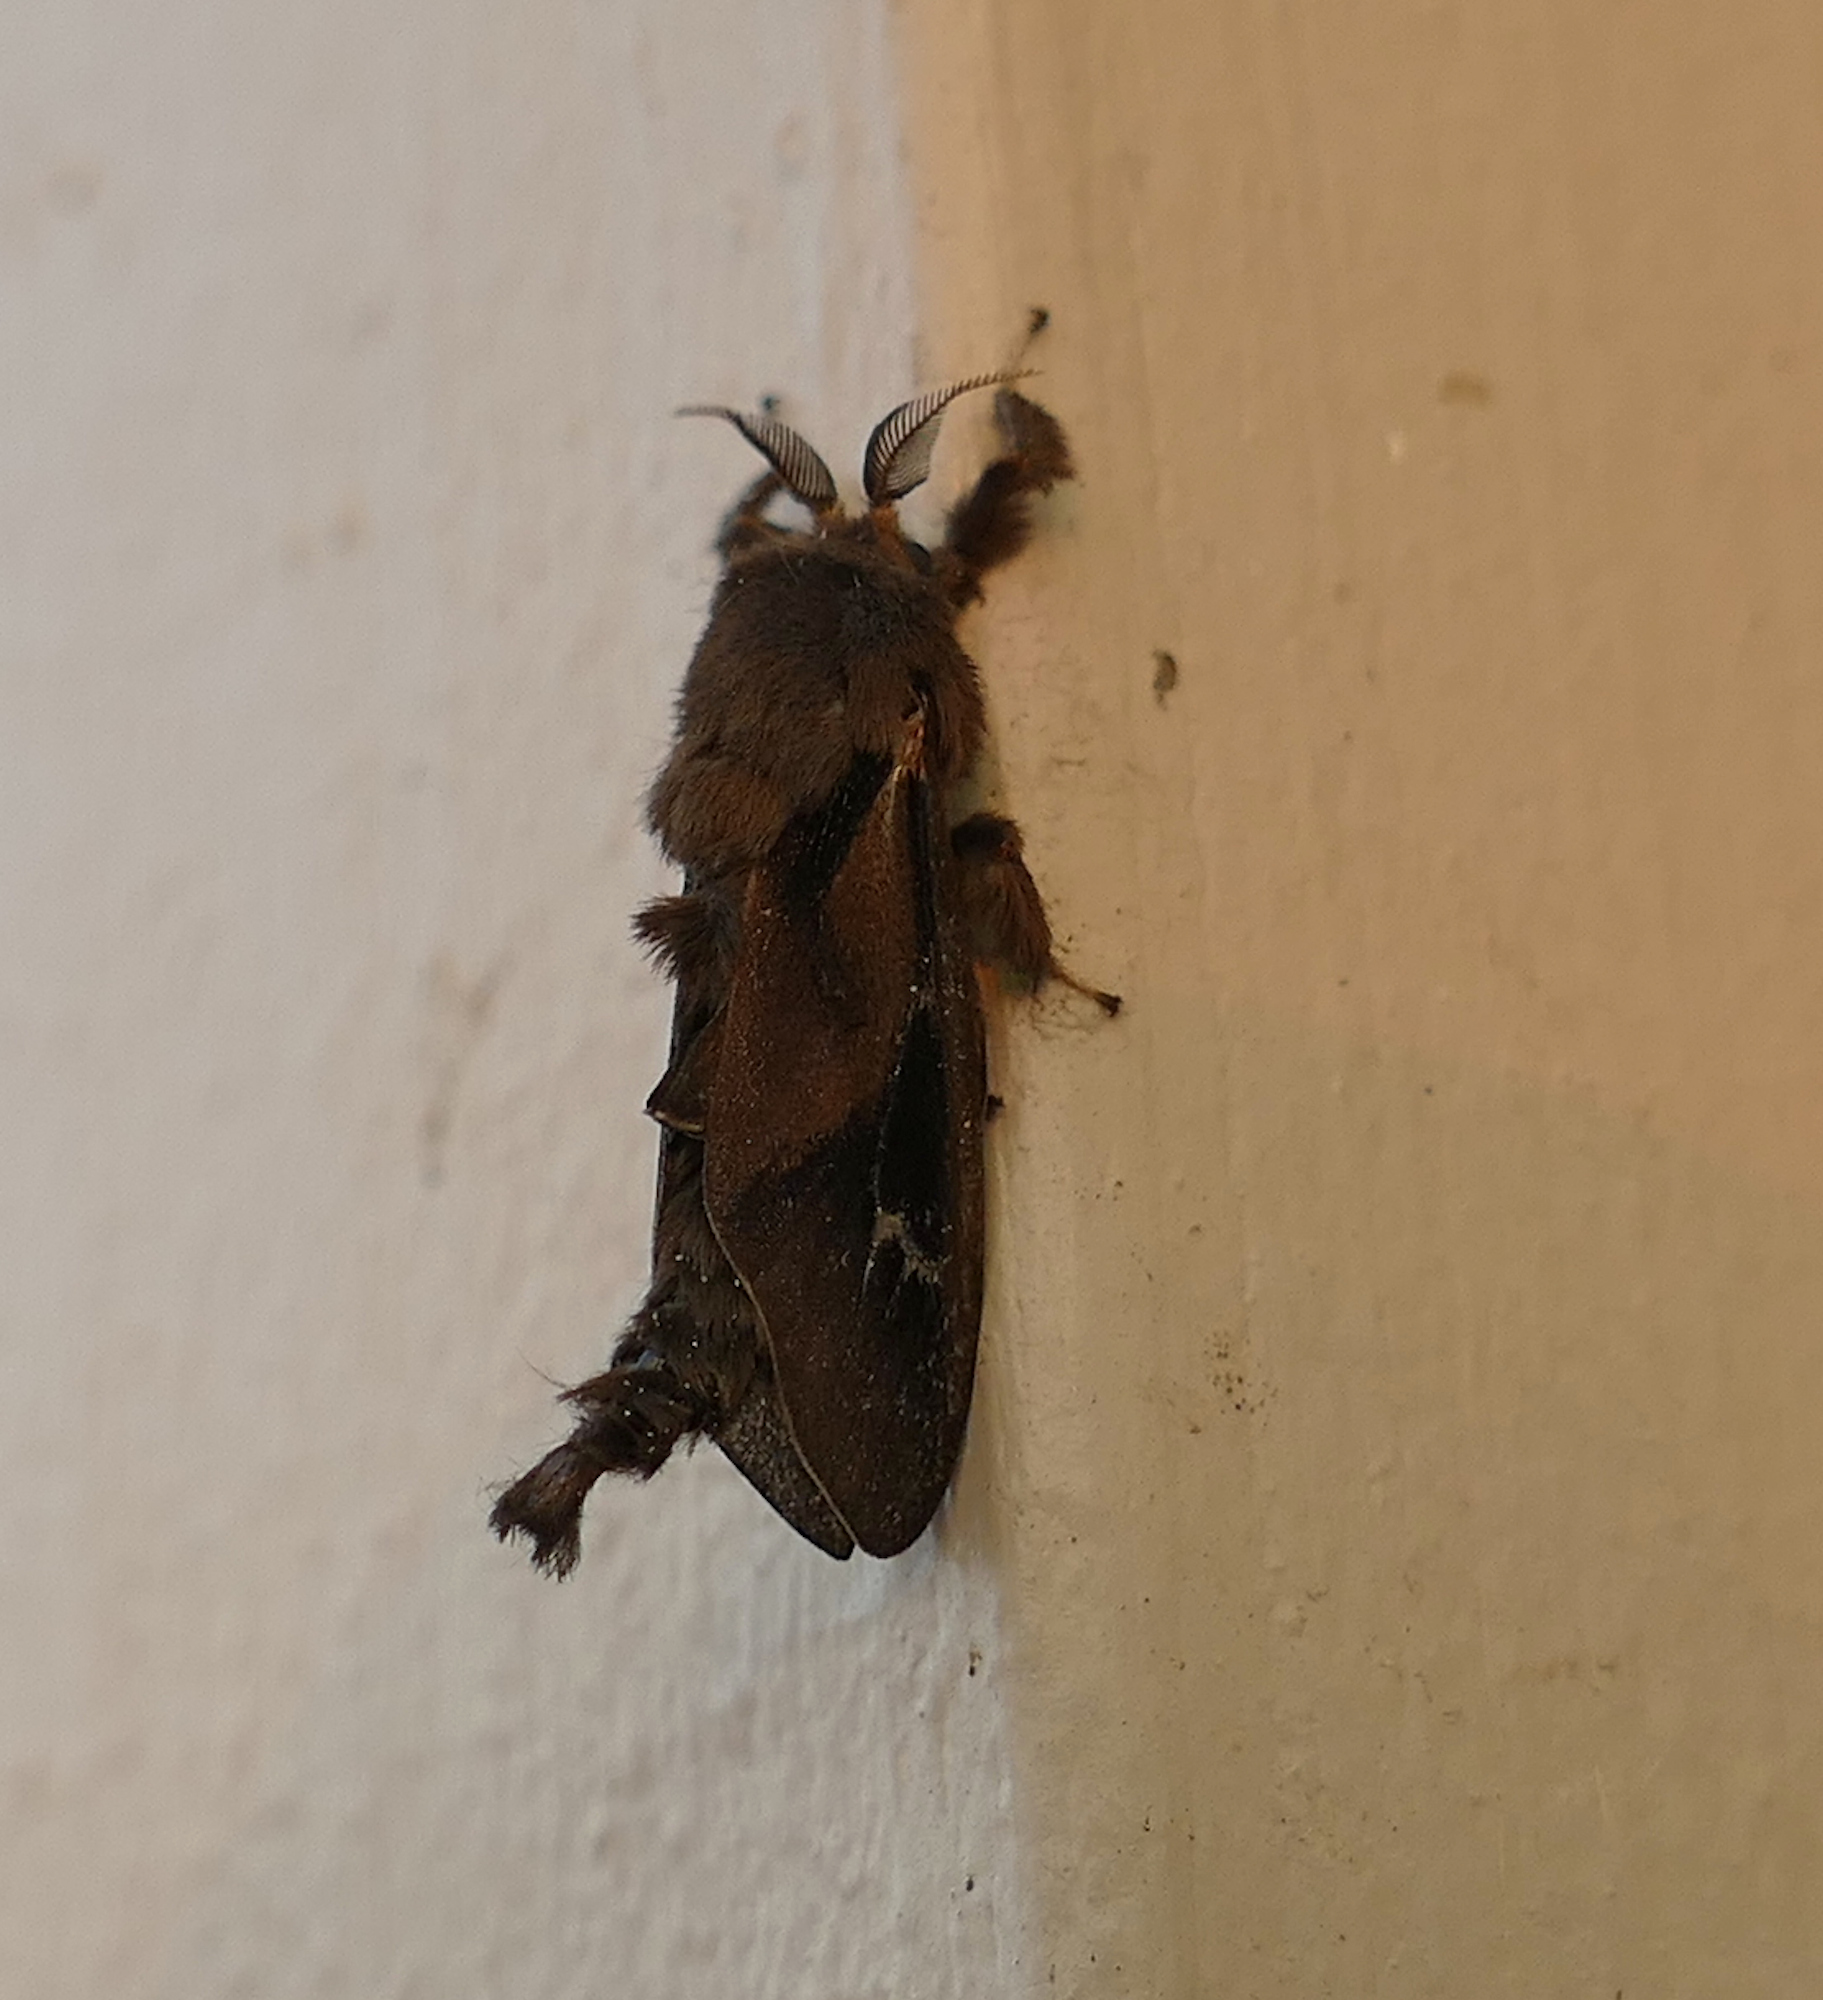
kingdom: Animalia
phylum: Arthropoda
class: Insecta
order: Lepidoptera
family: Psychidae
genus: Oiketicus
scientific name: Oiketicus
